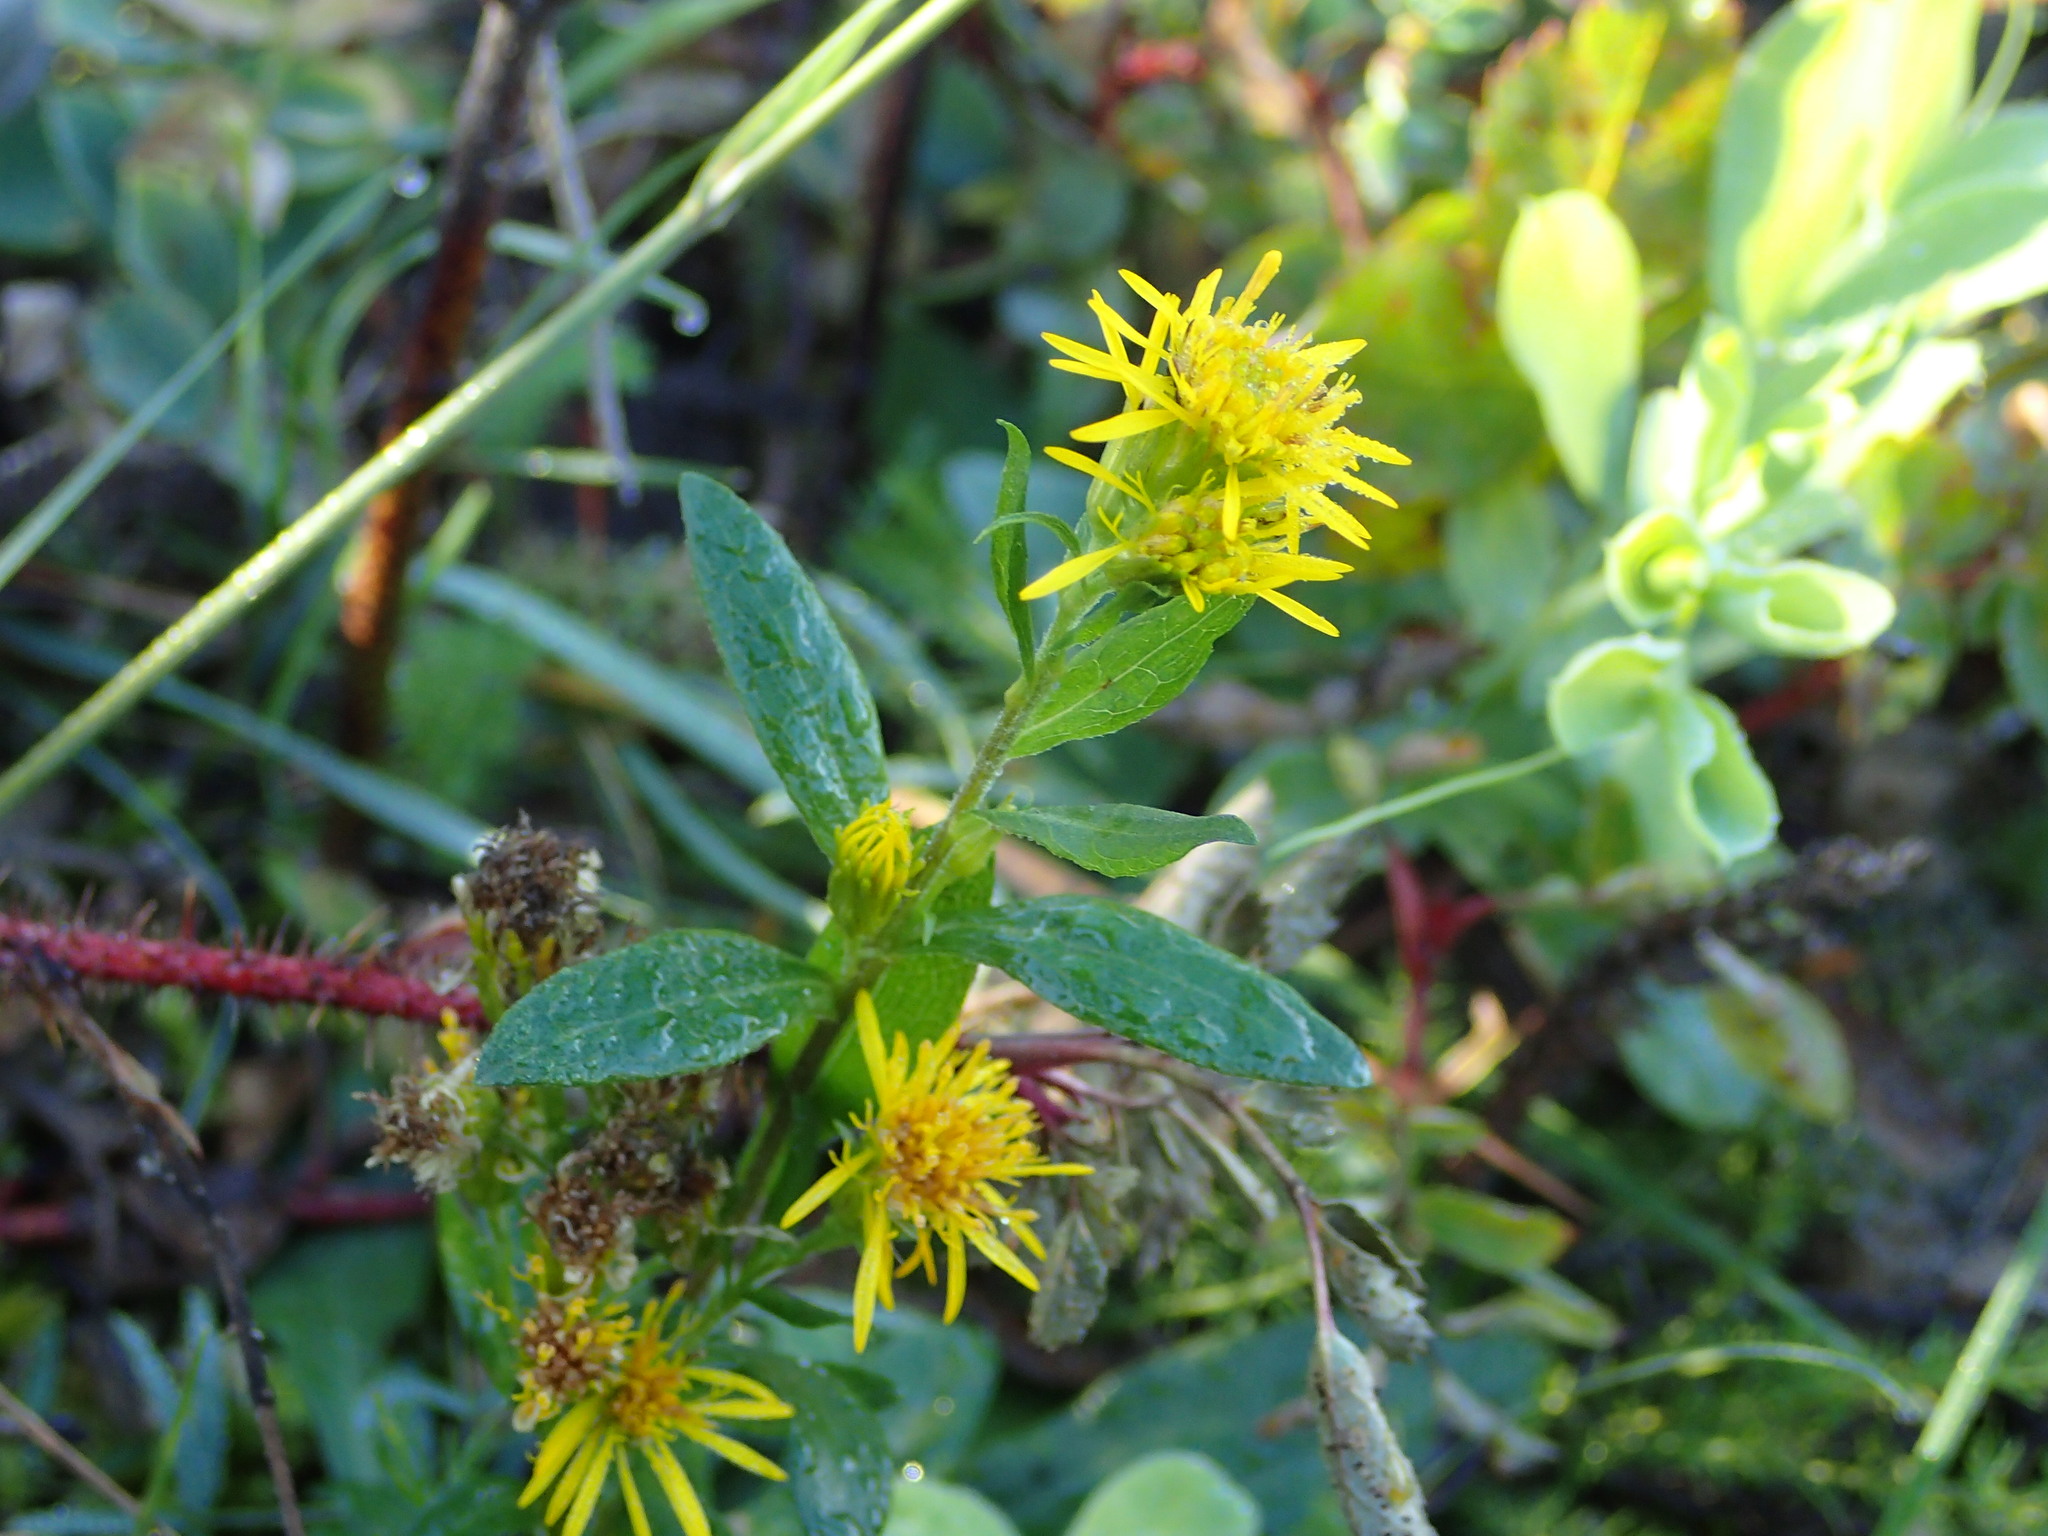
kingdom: Plantae
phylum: Tracheophyta
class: Magnoliopsida
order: Asterales
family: Asteraceae
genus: Solidago
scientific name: Solidago multiradiata
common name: Northern goldenrod
